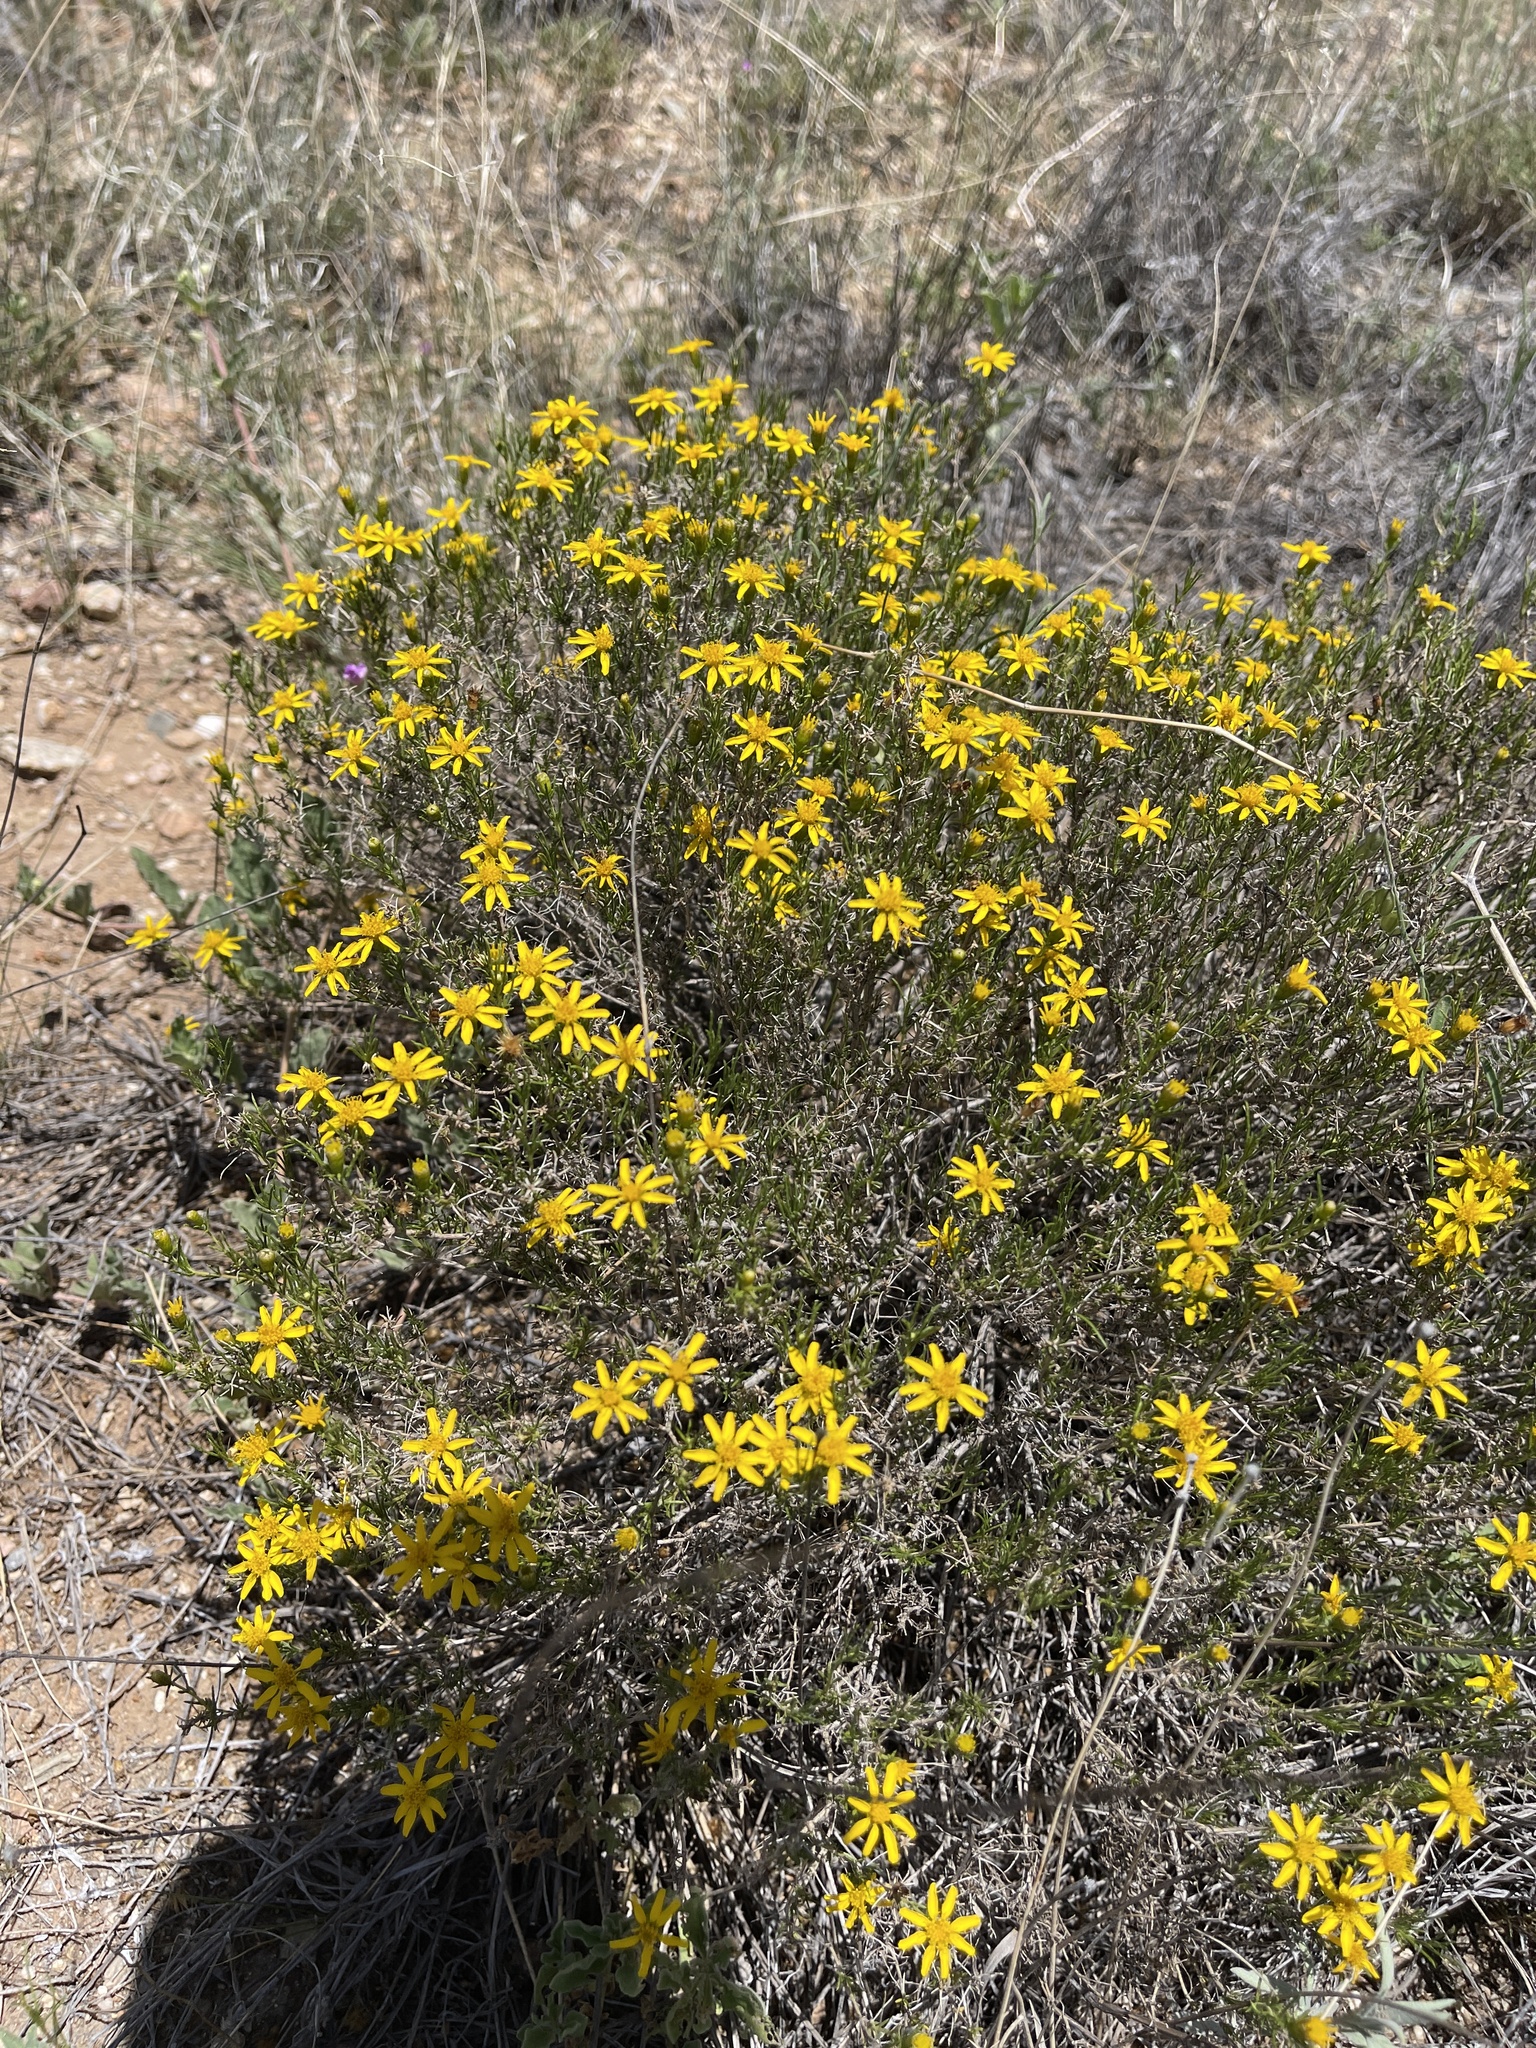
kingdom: Plantae
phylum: Tracheophyta
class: Magnoliopsida
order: Asterales
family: Asteraceae
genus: Thymophylla
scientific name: Thymophylla acerosa
